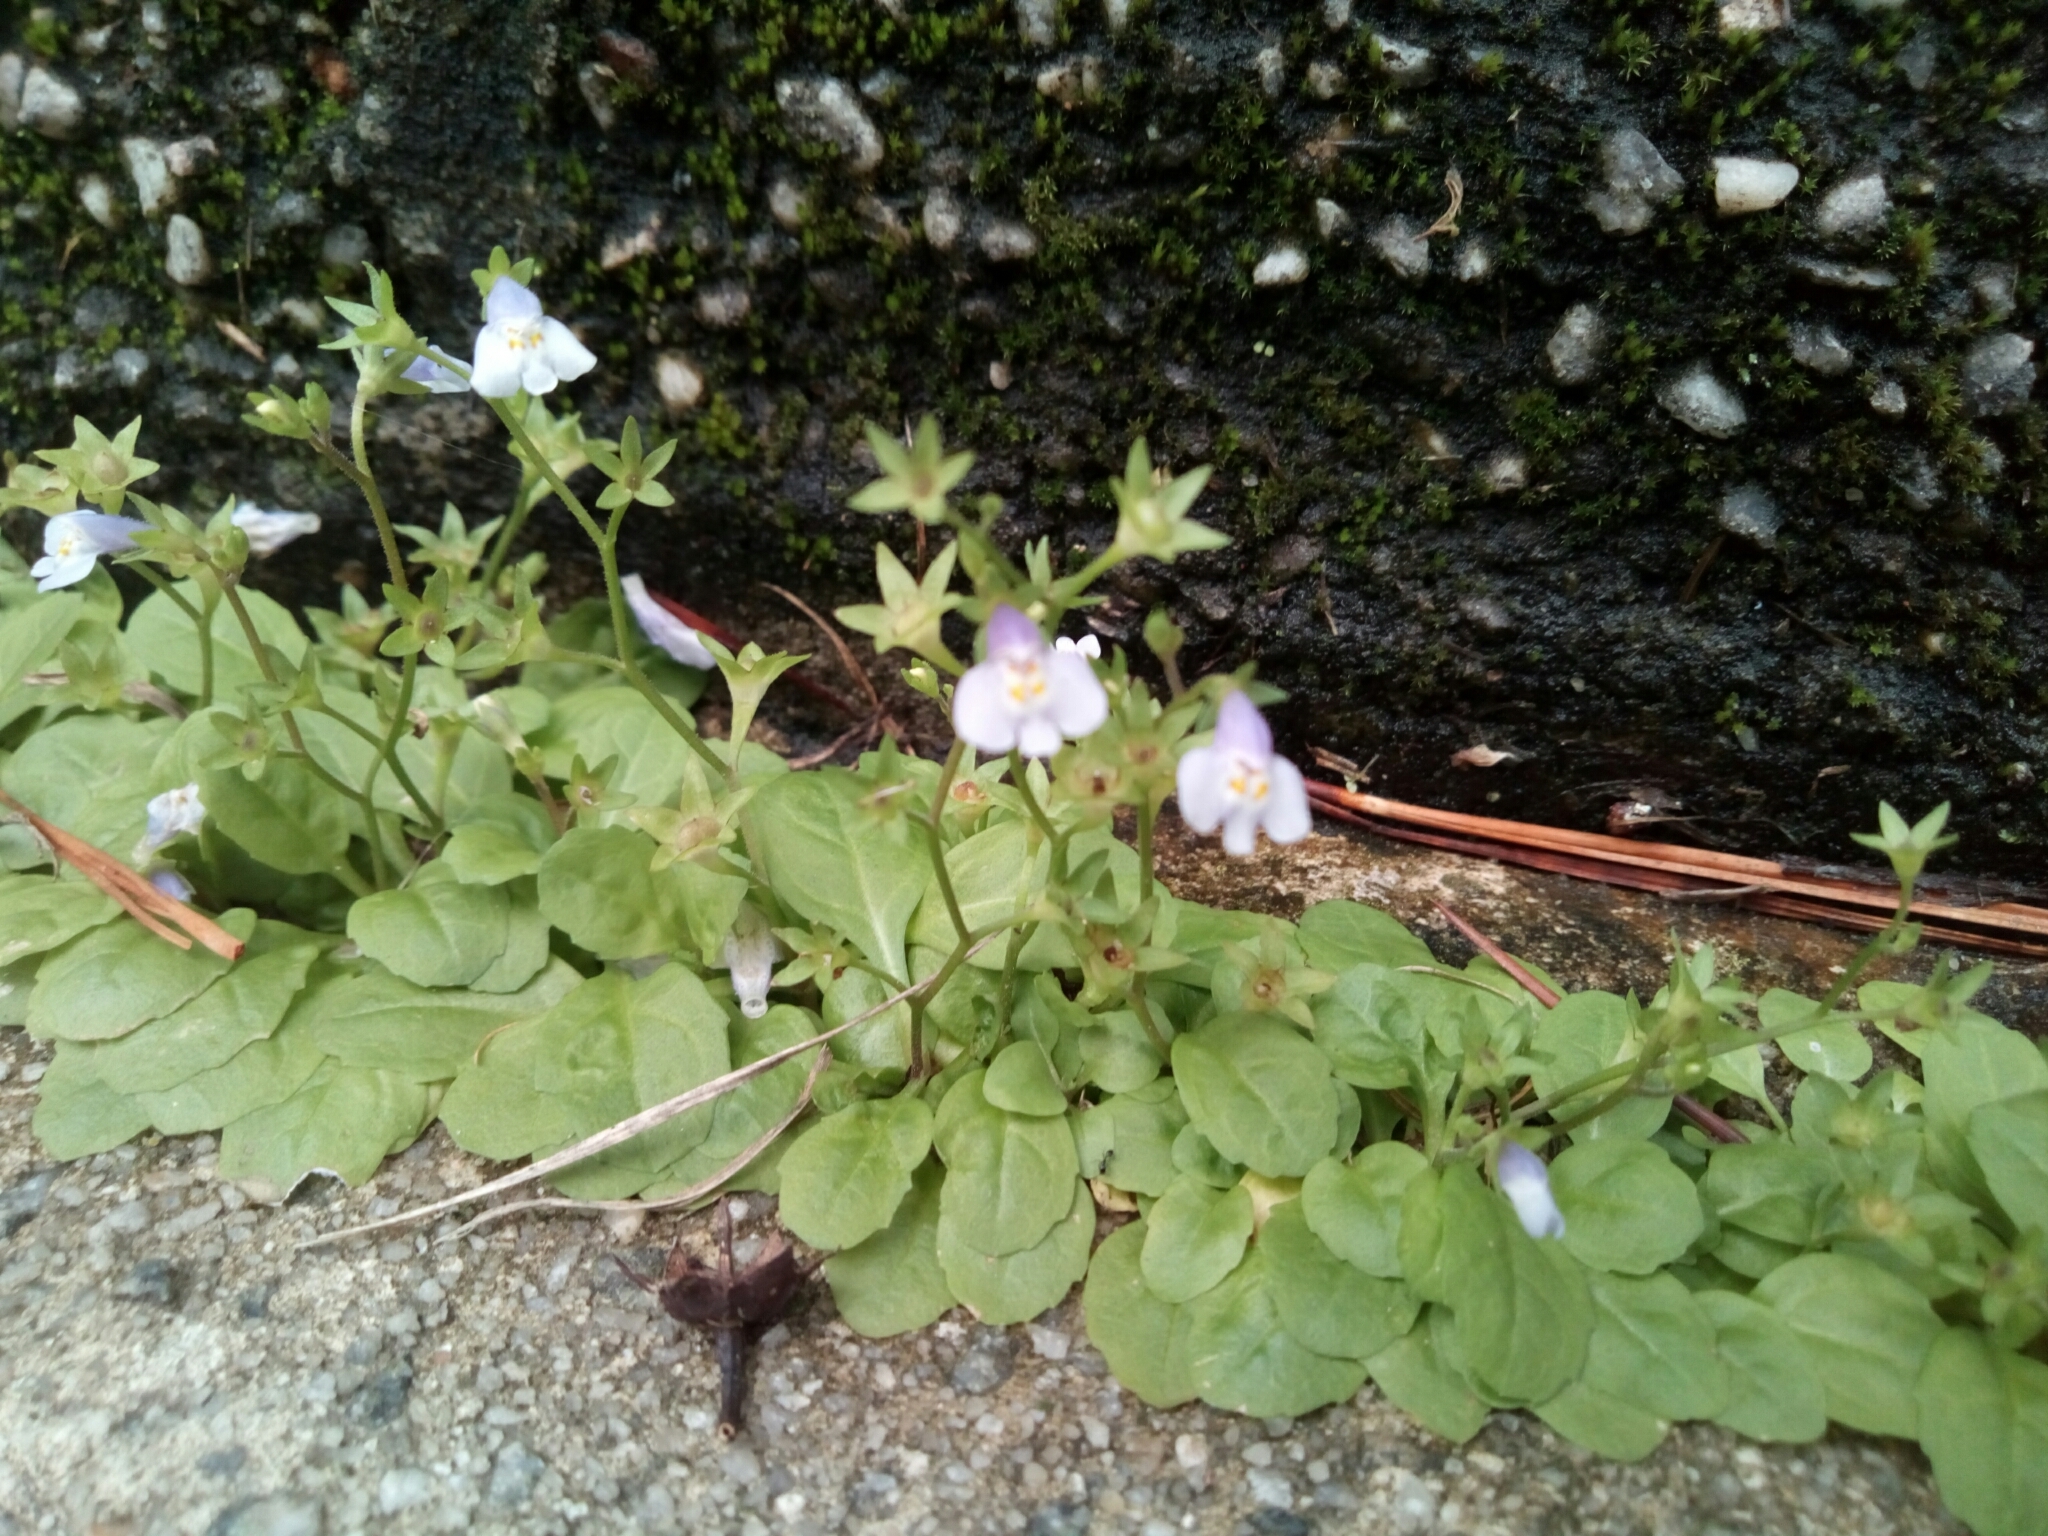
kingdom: Plantae
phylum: Tracheophyta
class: Magnoliopsida
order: Lamiales
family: Mazaceae
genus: Mazus
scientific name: Mazus pumilus
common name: Japanese mazus
